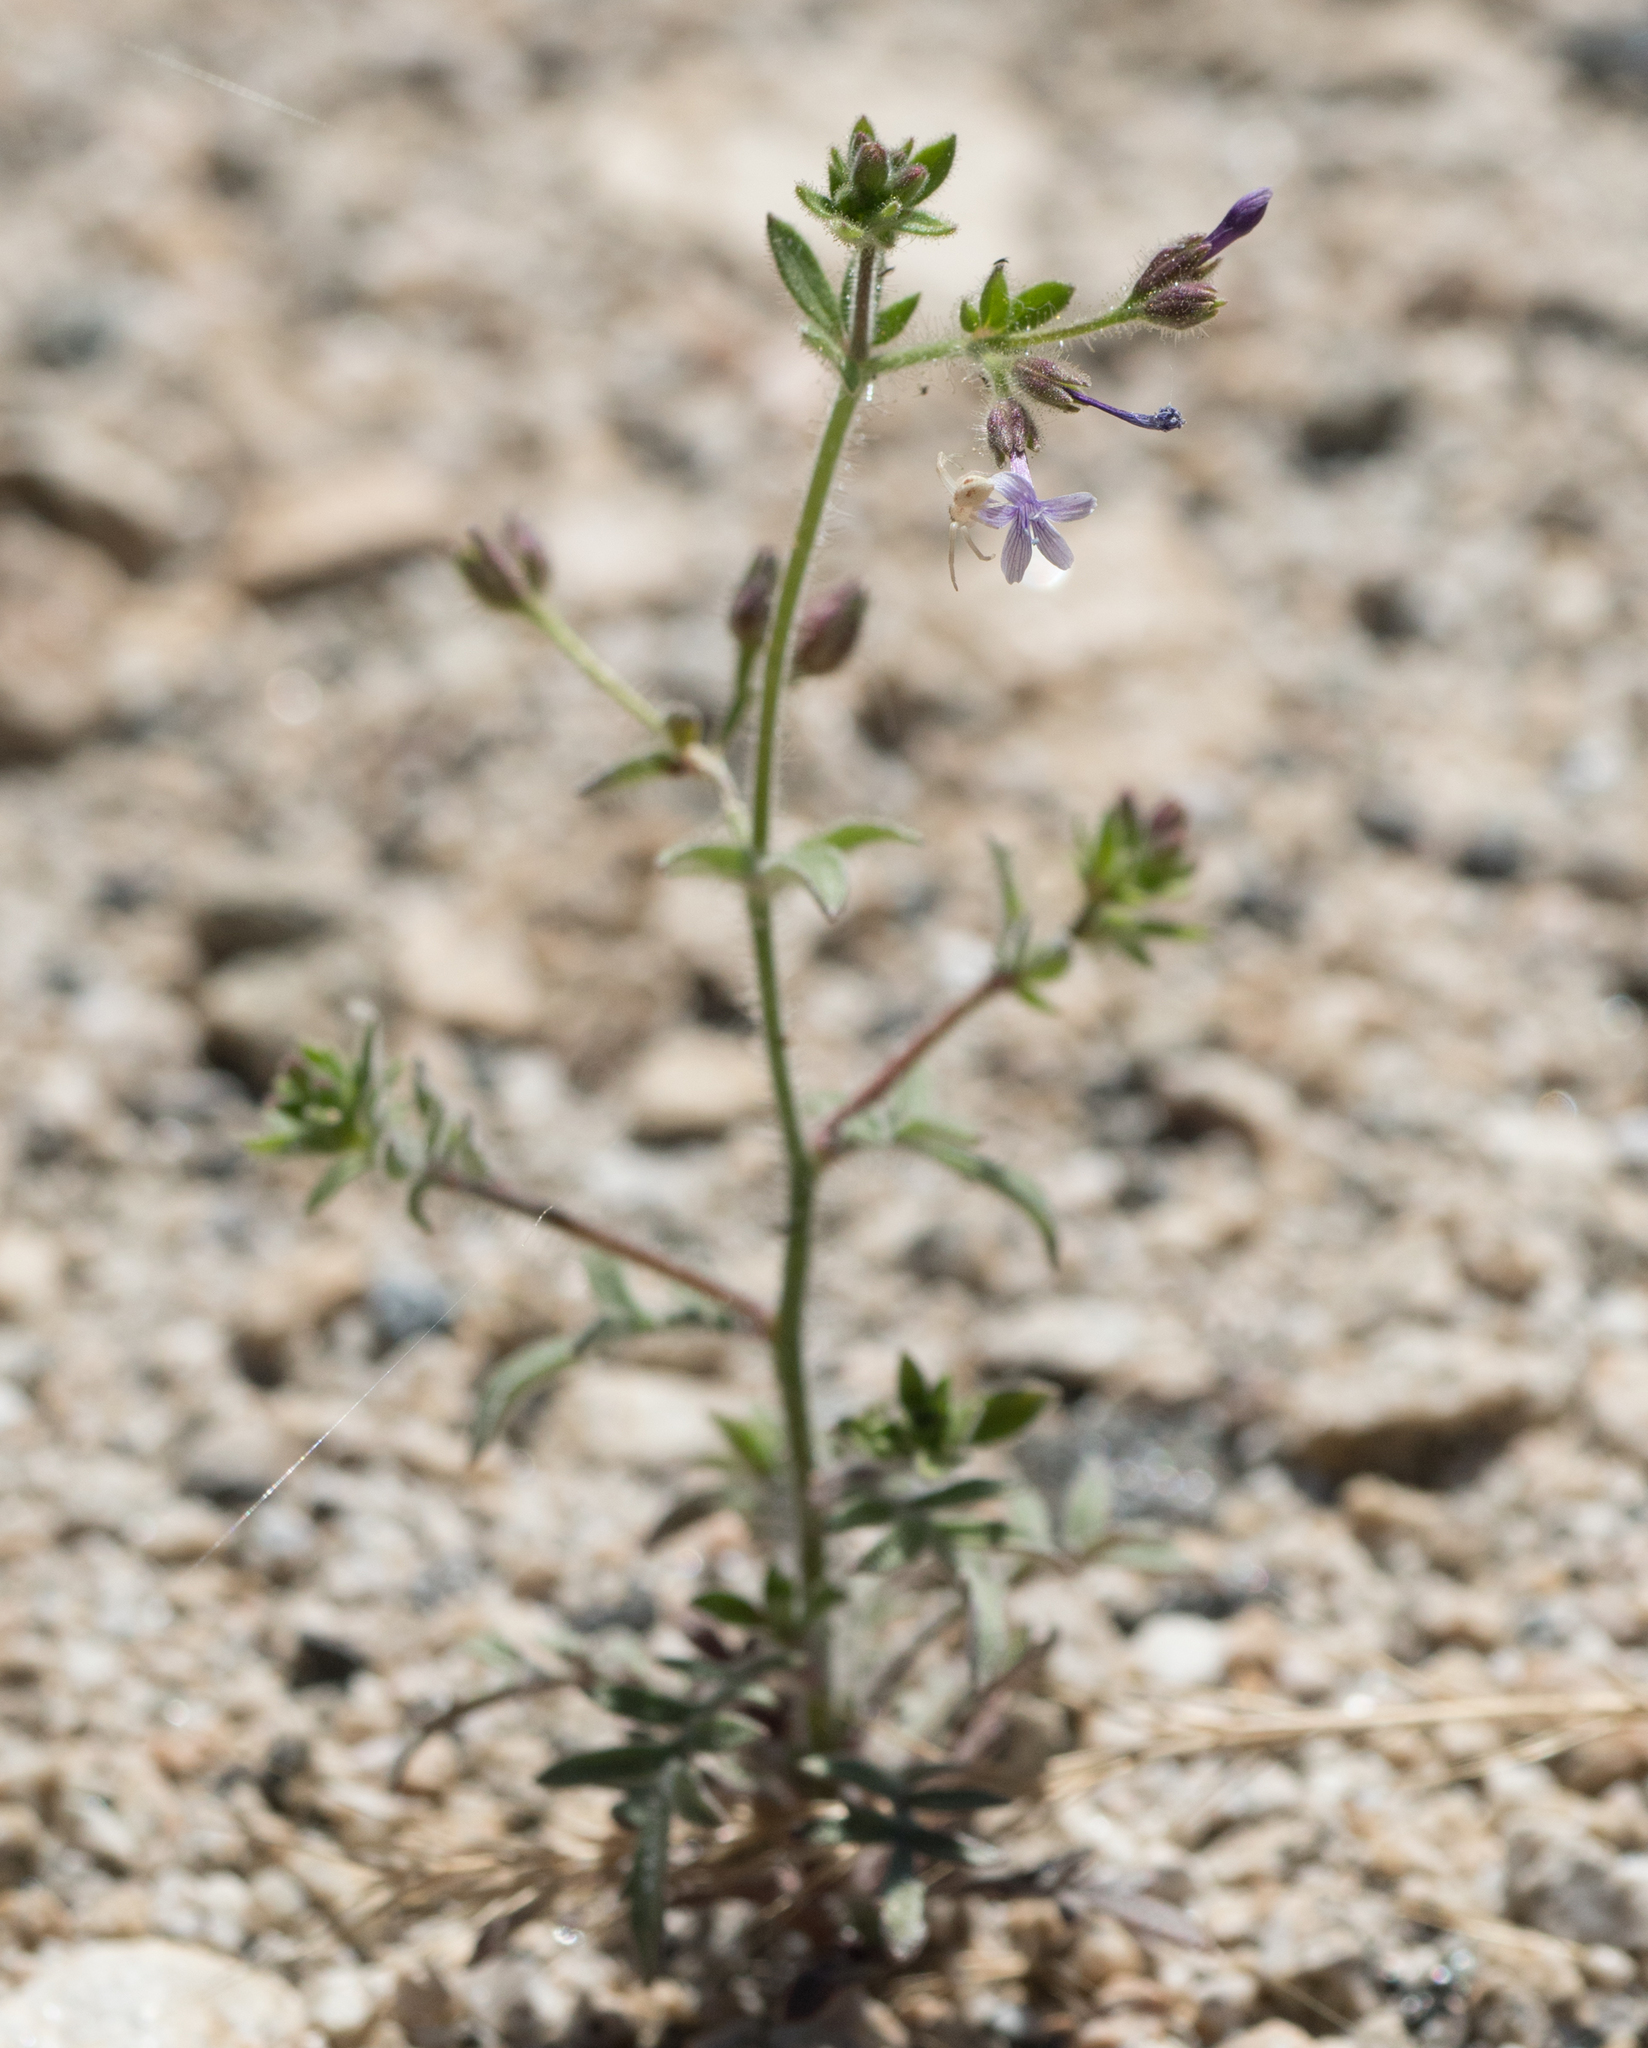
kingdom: Plantae
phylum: Tracheophyta
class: Magnoliopsida
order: Ericales
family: Polemoniaceae
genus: Allophyllum
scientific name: Allophyllum glutinosum
